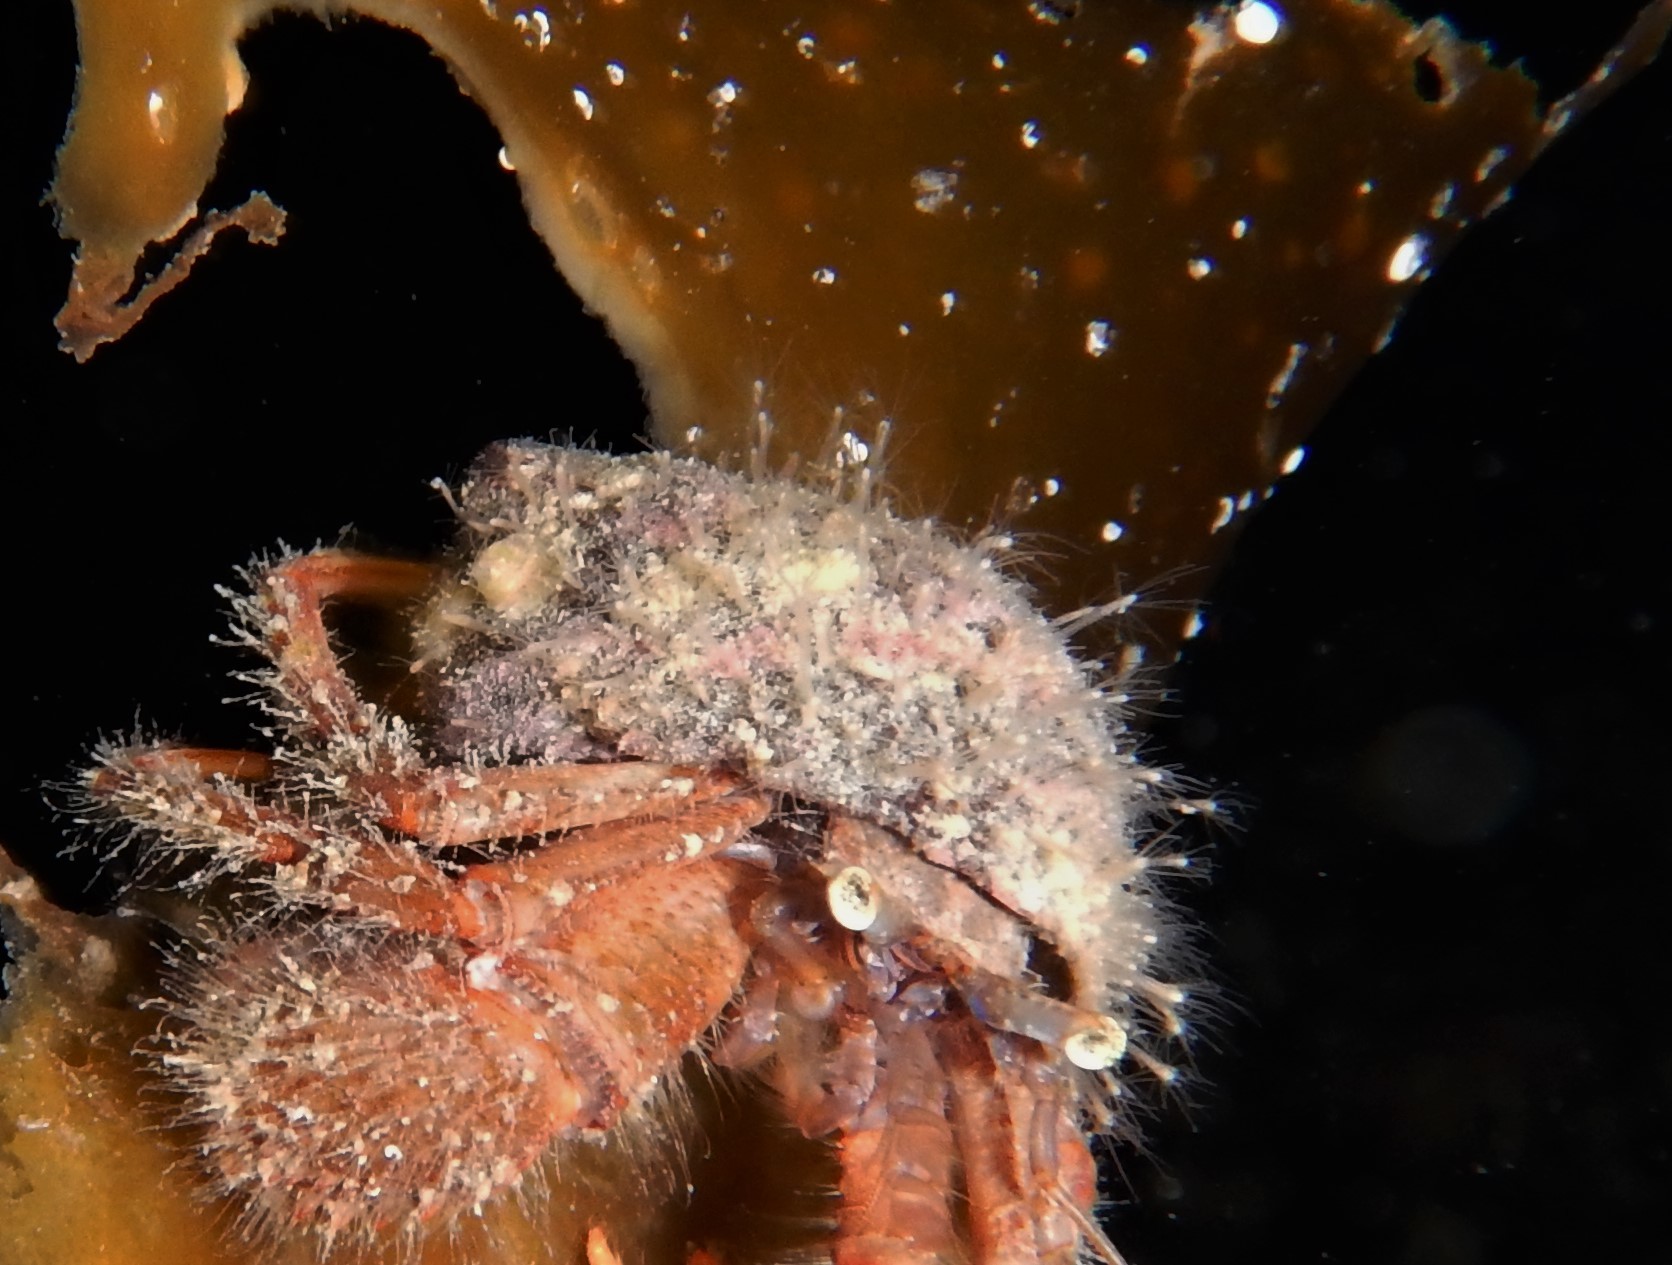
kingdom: Animalia
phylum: Cnidaria
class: Hydrozoa
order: Anthoathecata
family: Hydractiniidae
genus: Hydractinia
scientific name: Hydractinia echinata
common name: Rough hydroid
